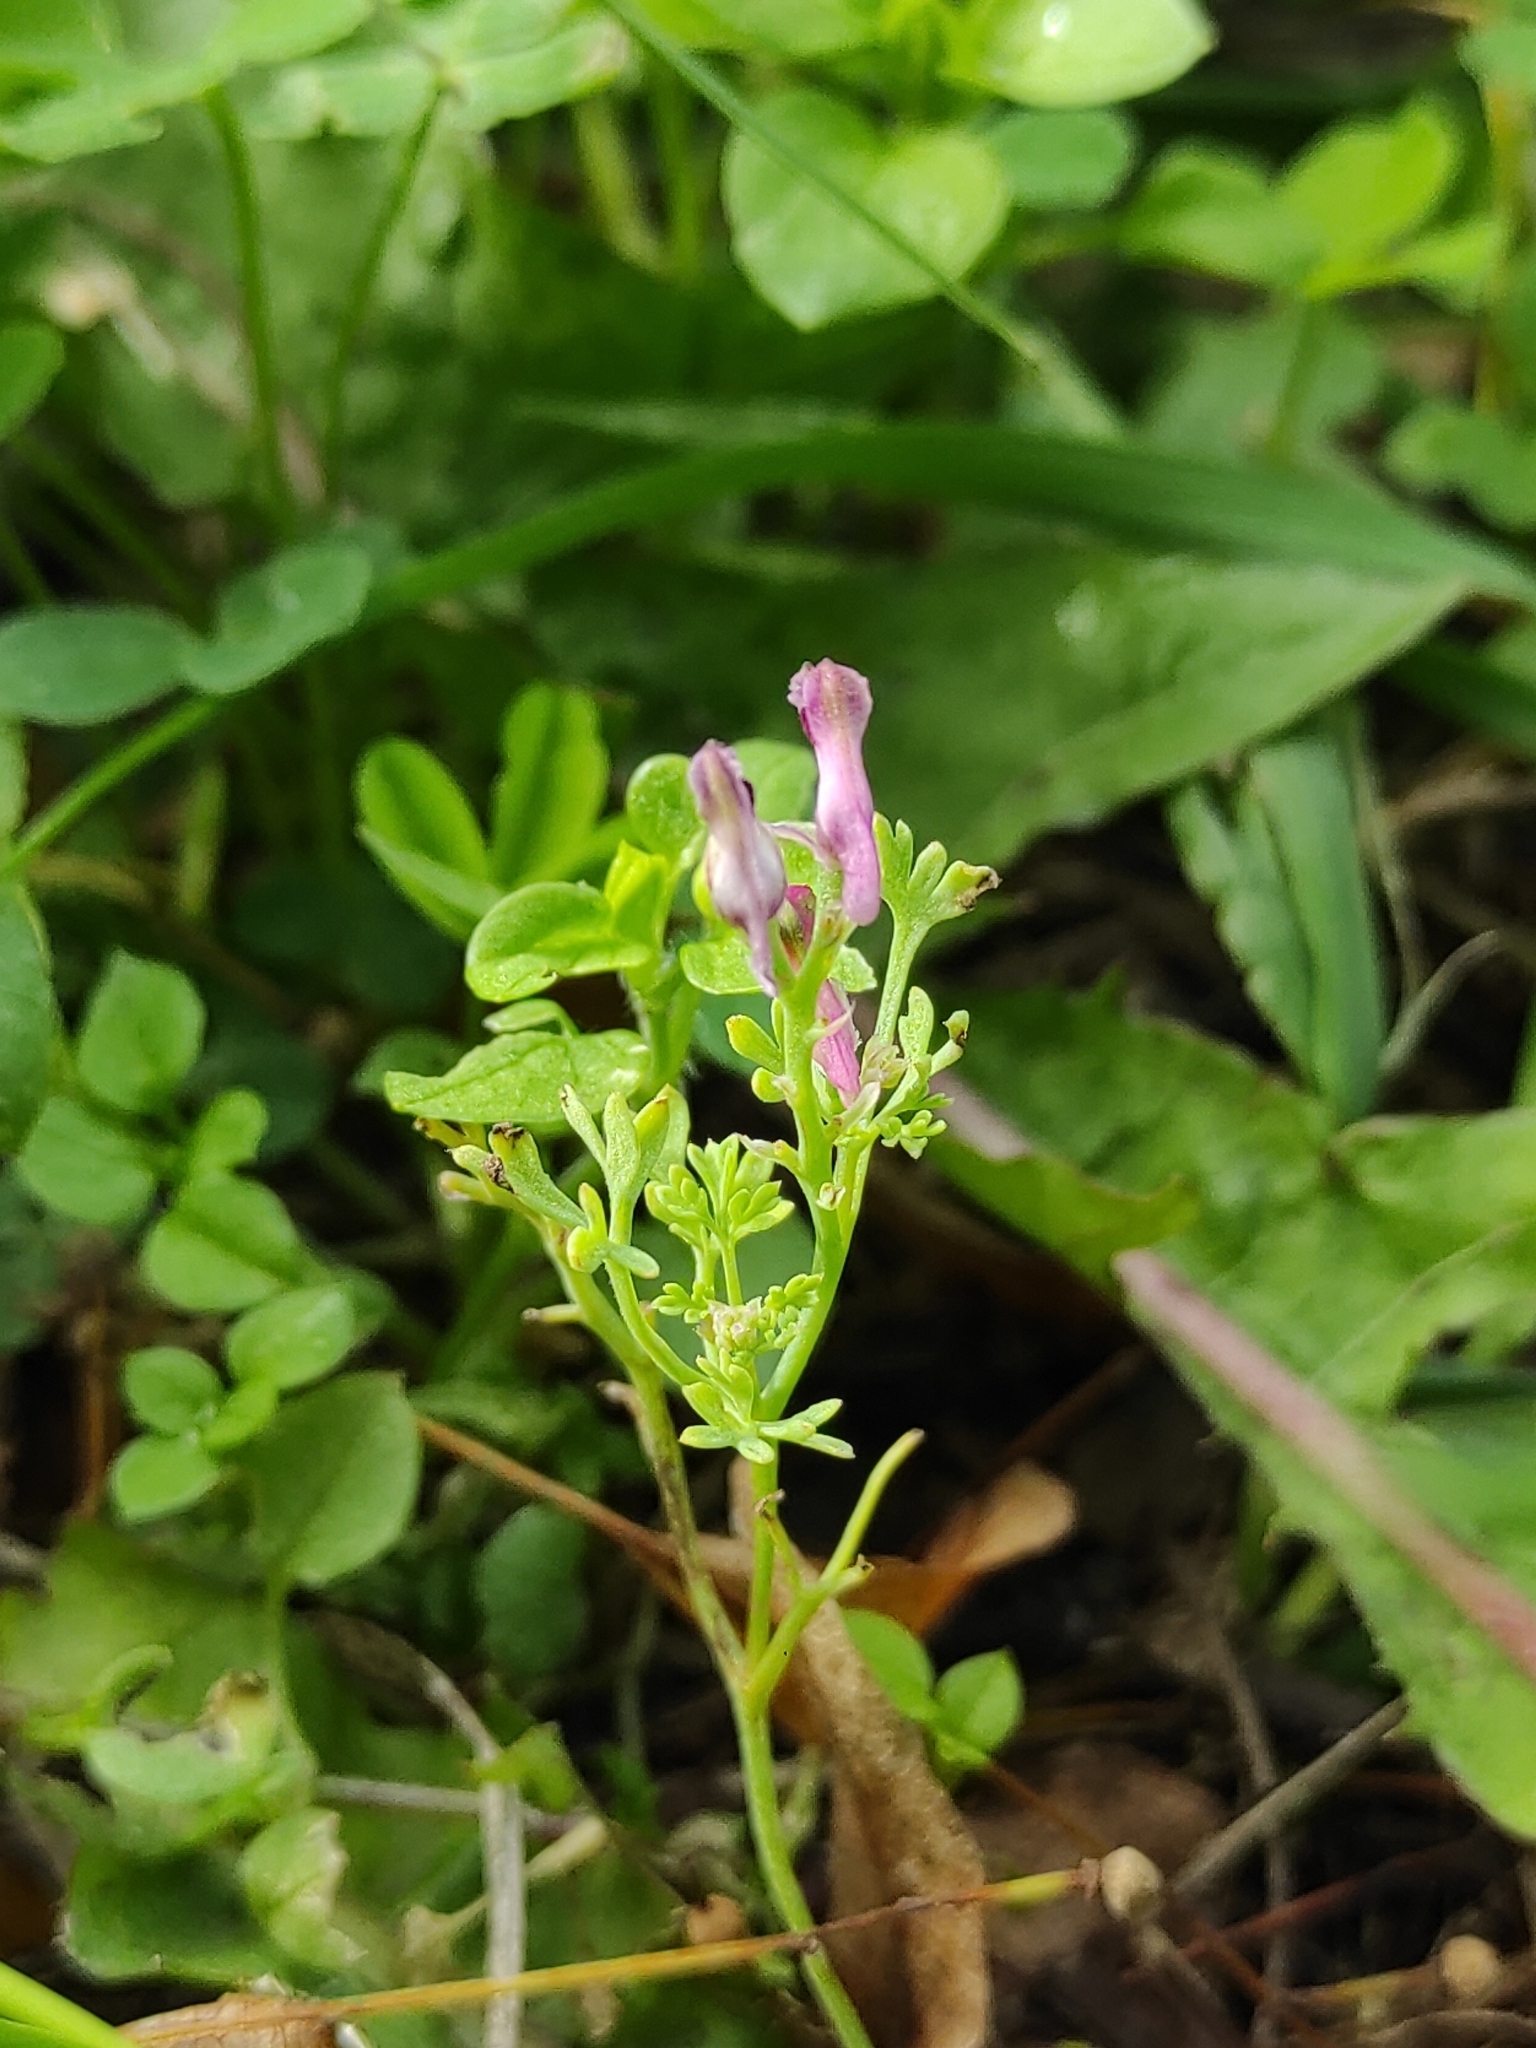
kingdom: Plantae
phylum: Tracheophyta
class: Magnoliopsida
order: Ranunculales
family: Papaveraceae
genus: Fumaria
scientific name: Fumaria officinalis
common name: Common fumitory
